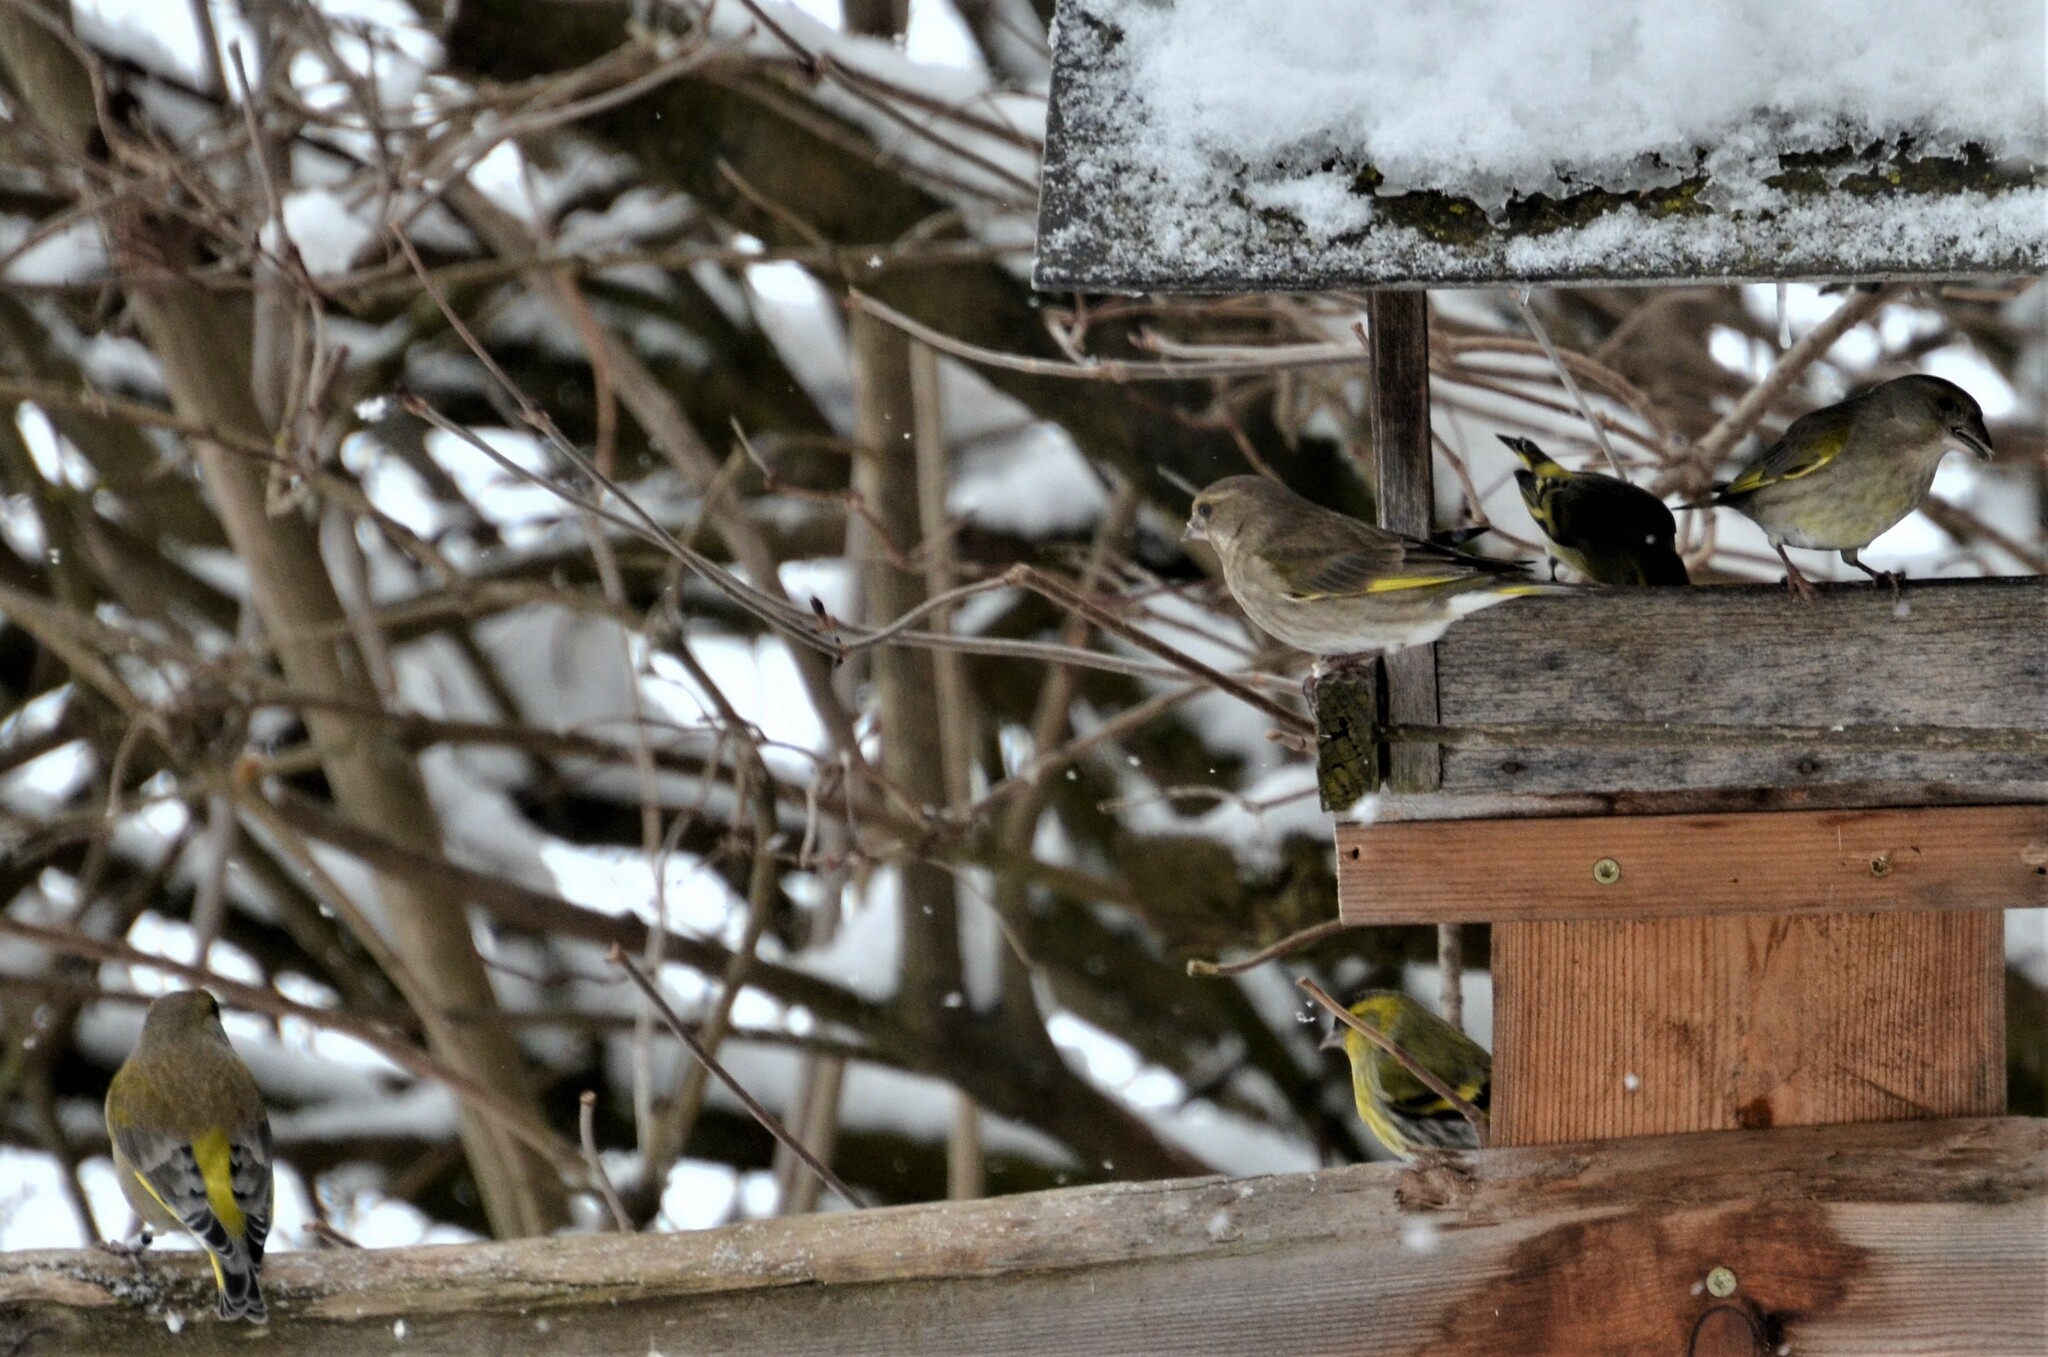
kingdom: Plantae
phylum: Tracheophyta
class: Liliopsida
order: Poales
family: Poaceae
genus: Chloris
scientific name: Chloris chloris
